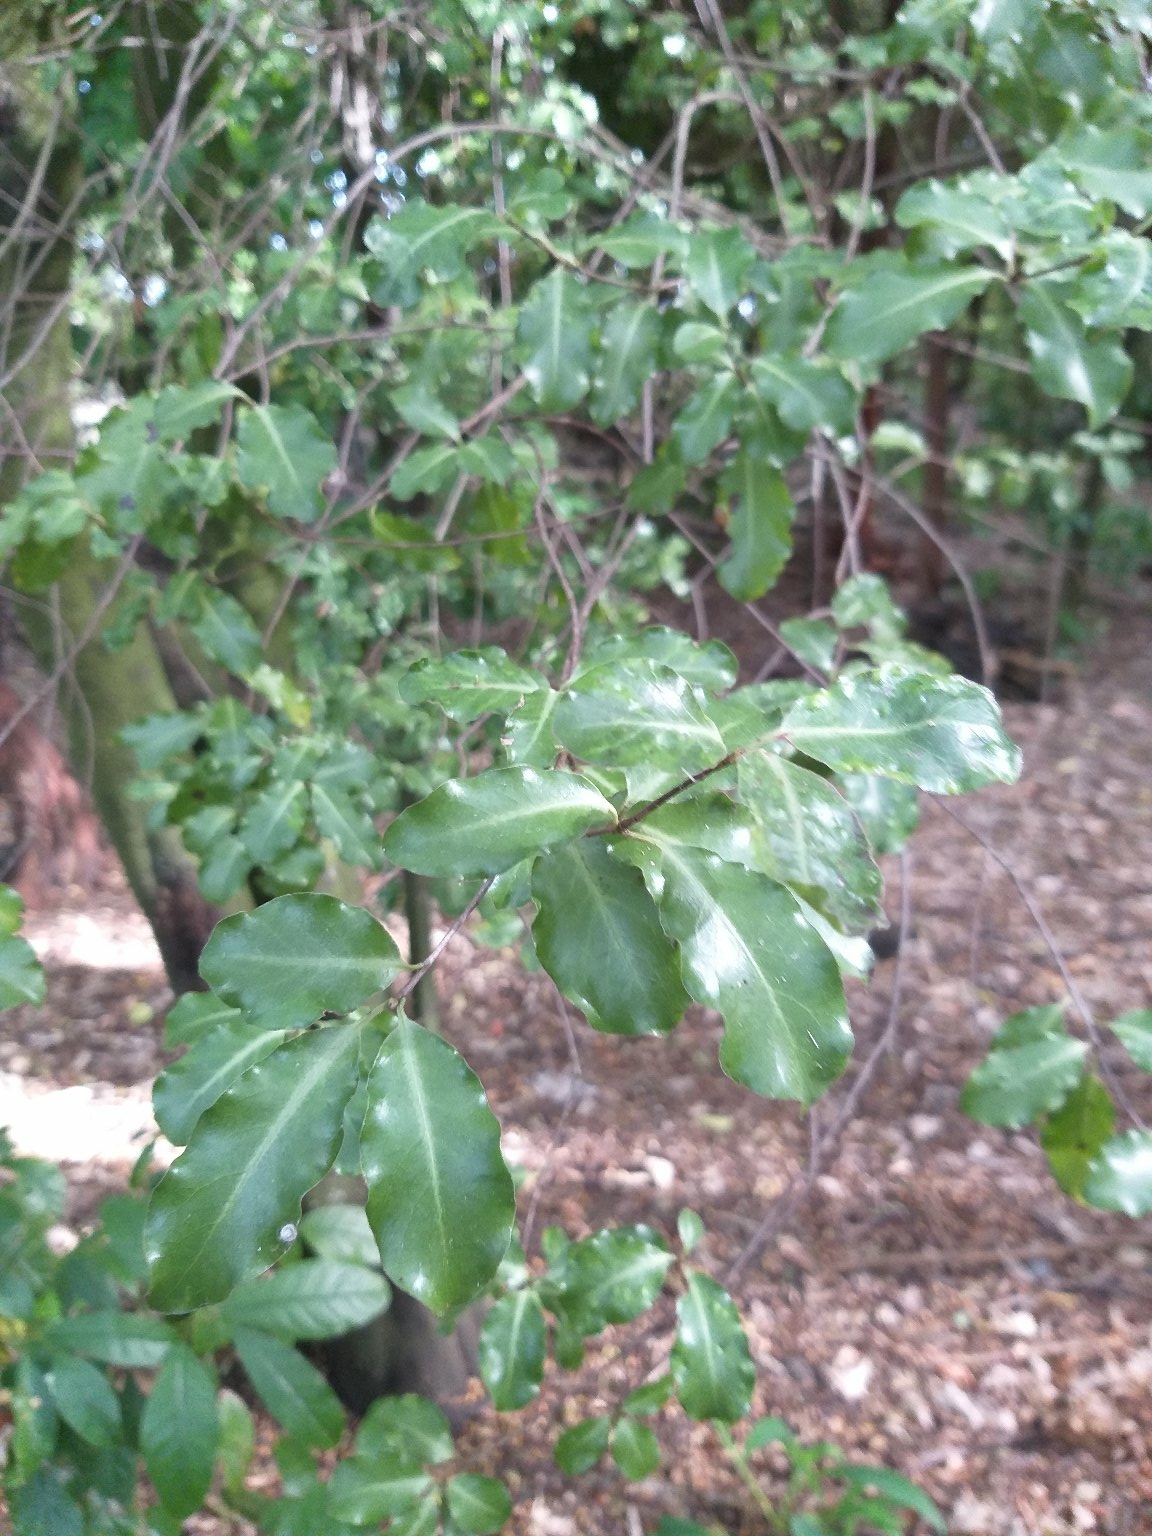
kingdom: Plantae
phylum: Tracheophyta
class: Magnoliopsida
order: Apiales
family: Pittosporaceae
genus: Pittosporum
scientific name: Pittosporum tenuifolium
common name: Kohuhu
